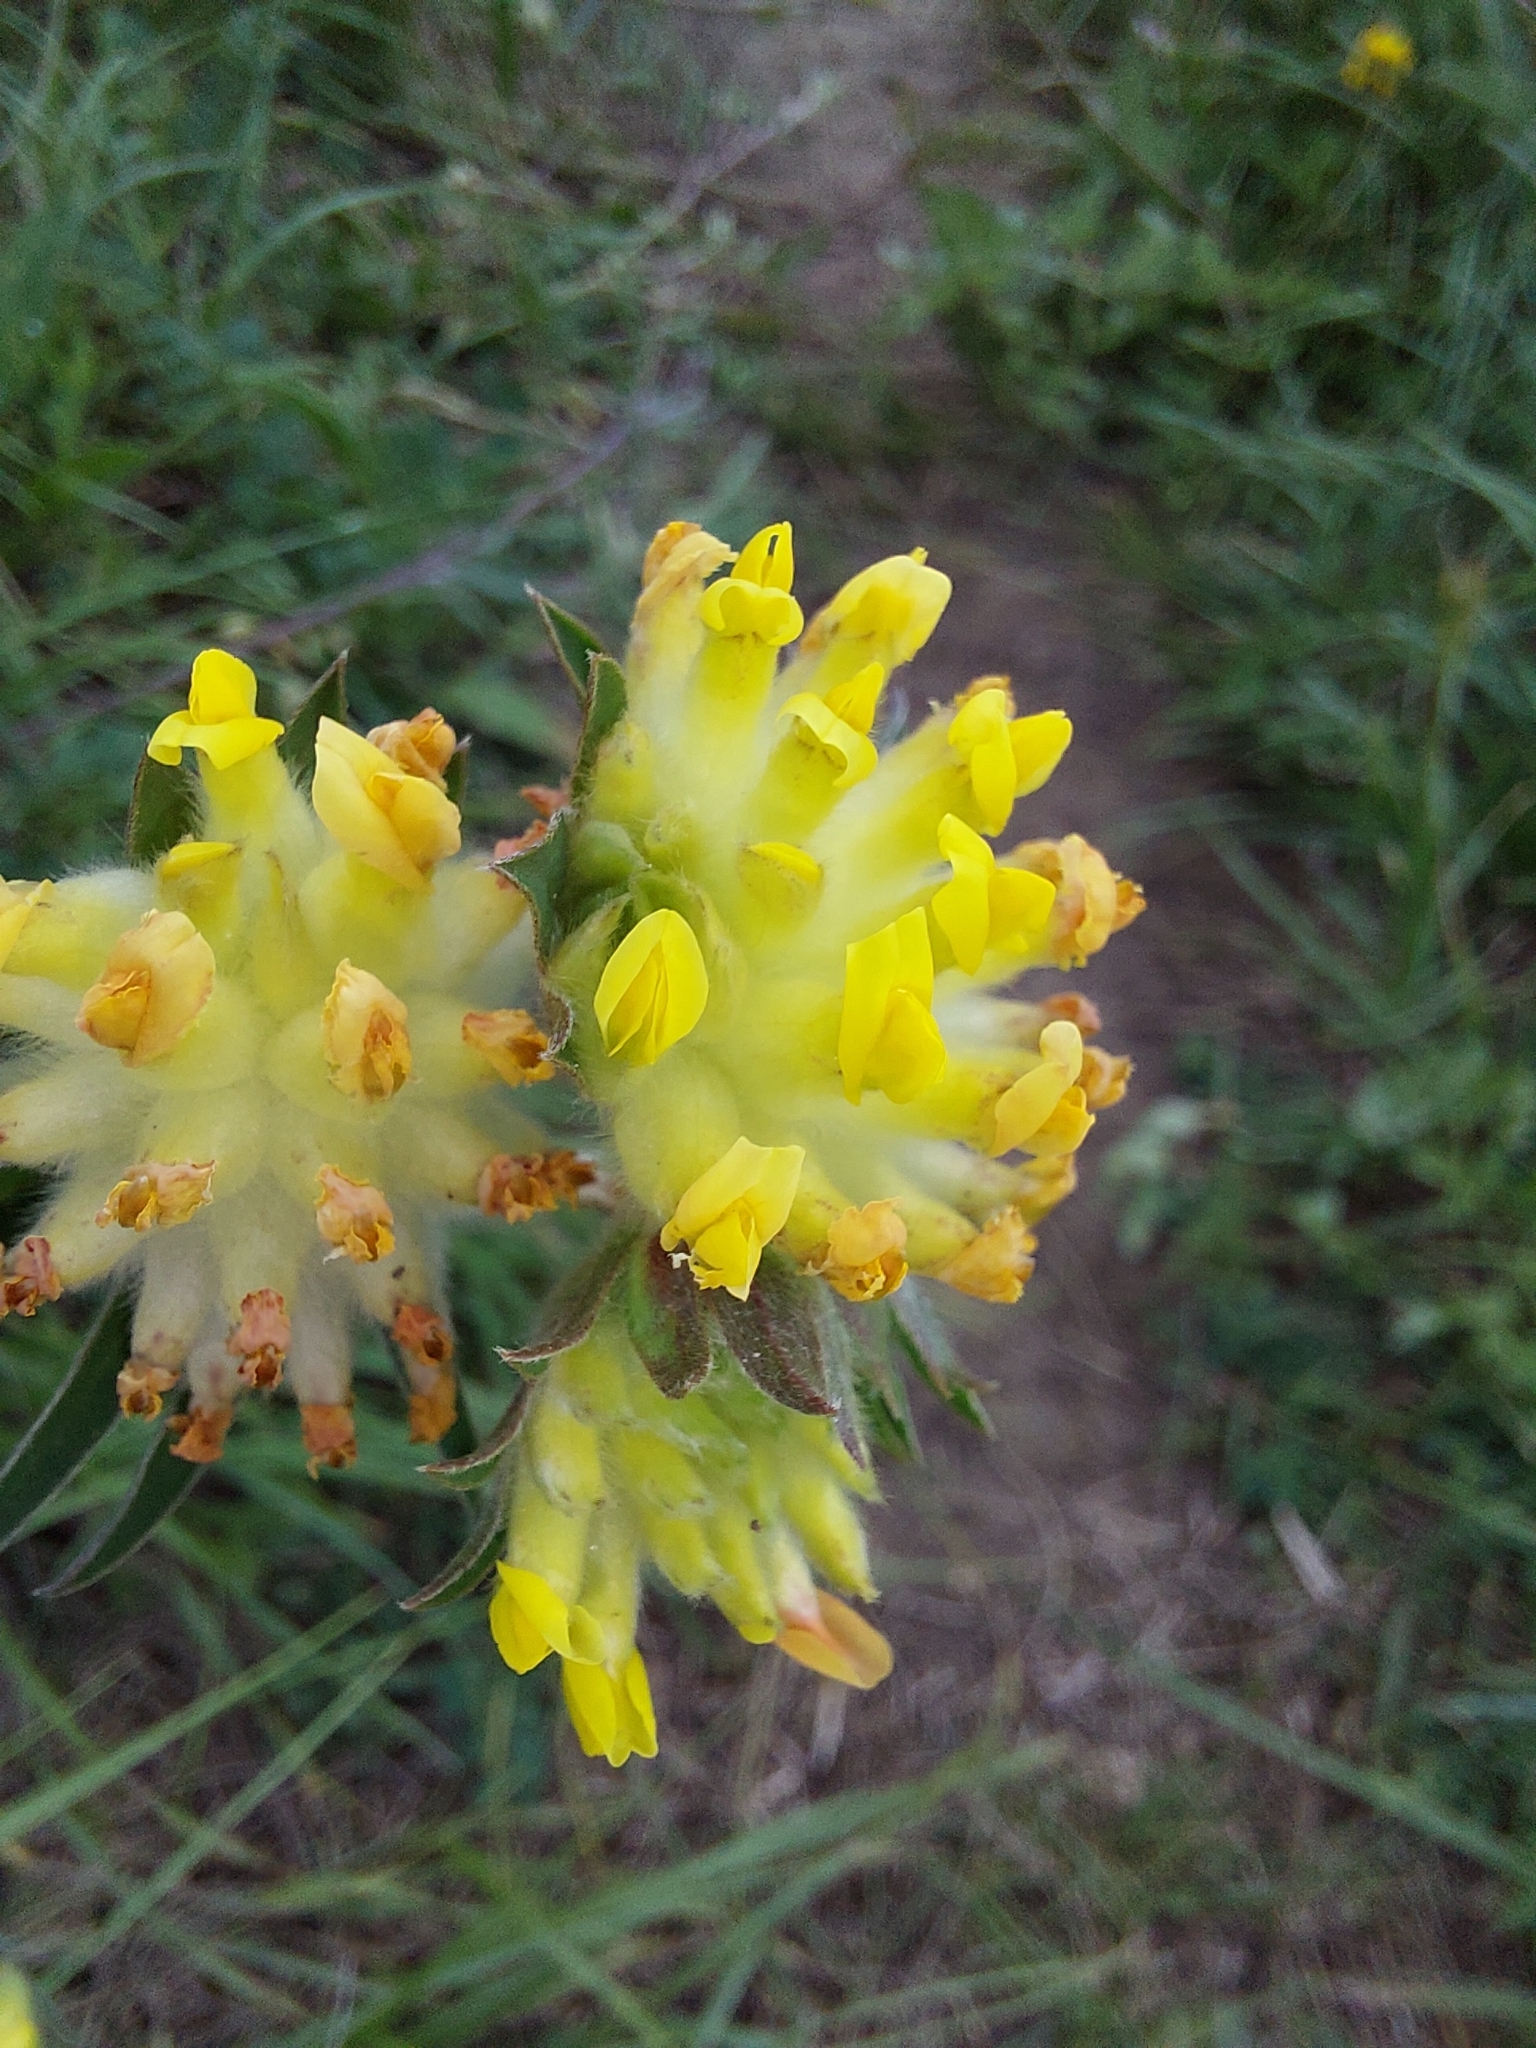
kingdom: Plantae
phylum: Tracheophyta
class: Magnoliopsida
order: Fabales
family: Fabaceae
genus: Anthyllis
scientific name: Anthyllis vulneraria
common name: Kidney vetch
